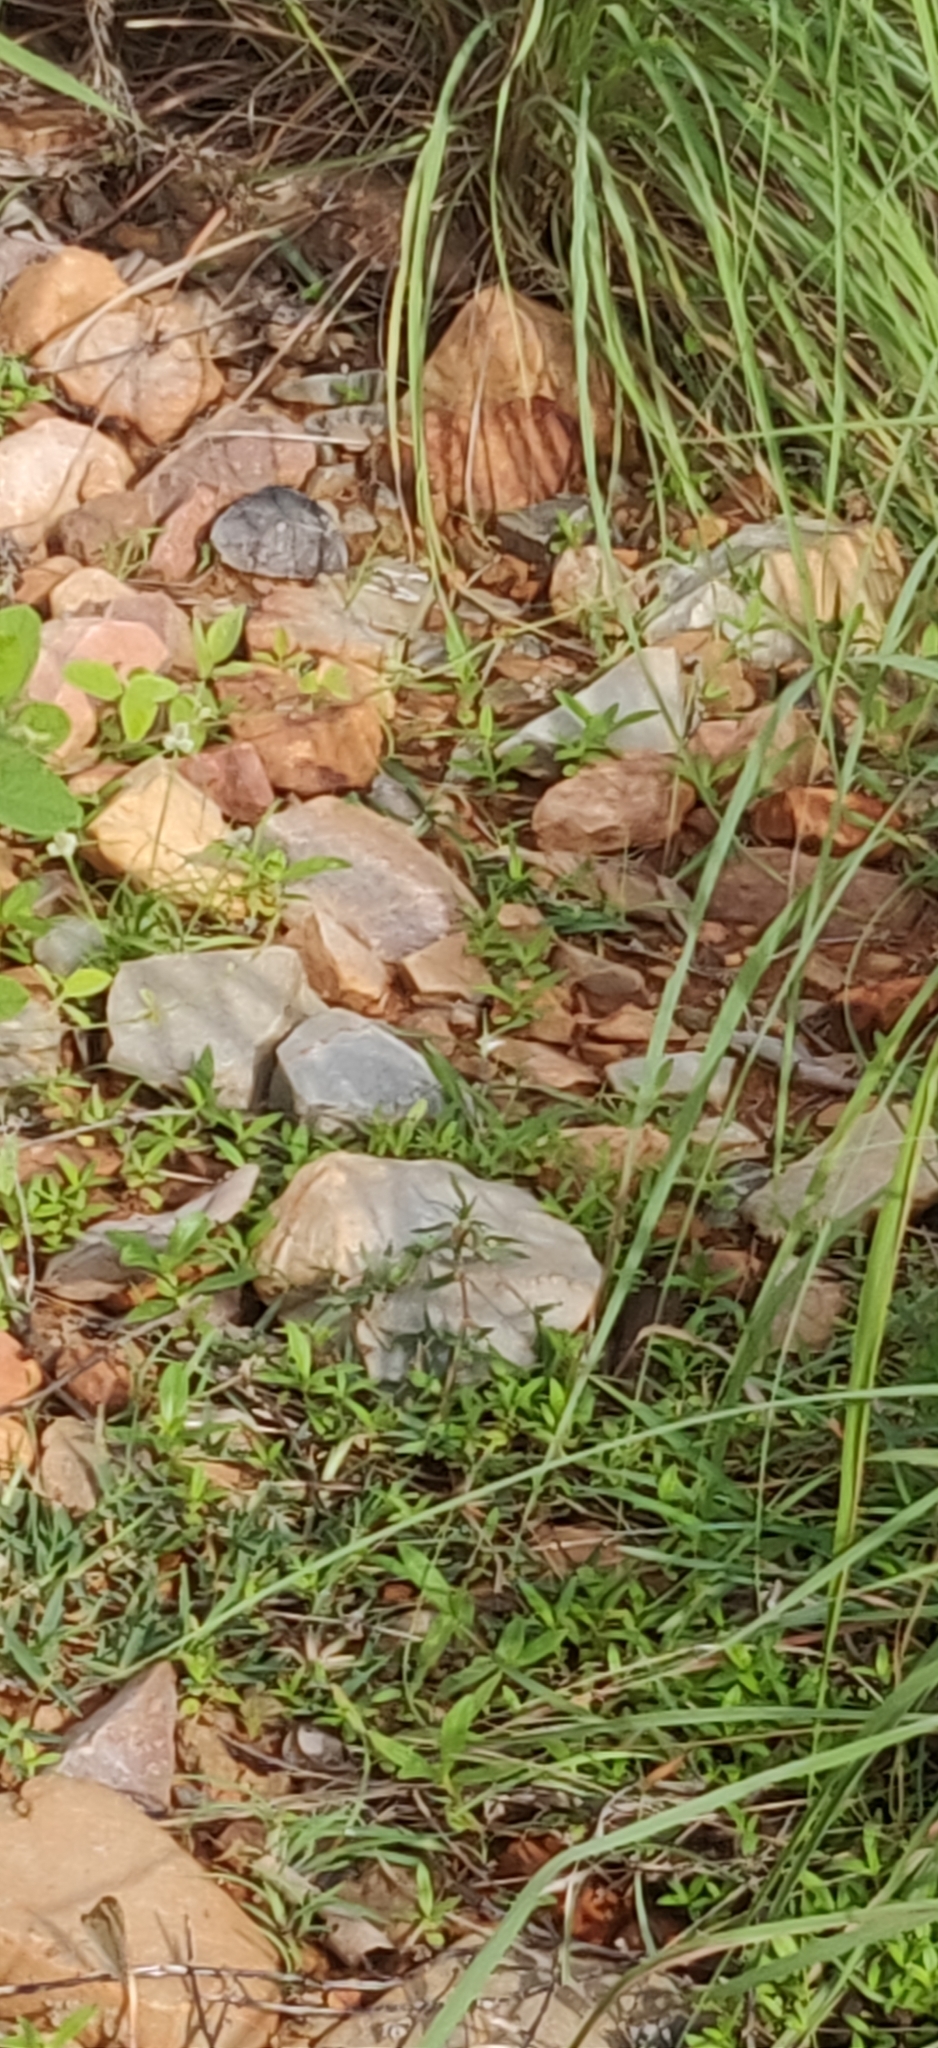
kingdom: Animalia
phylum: Arthropoda
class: Insecta
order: Lepidoptera
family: Nymphalidae
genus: Junonia
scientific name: Junonia orithya
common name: Blue pansy
